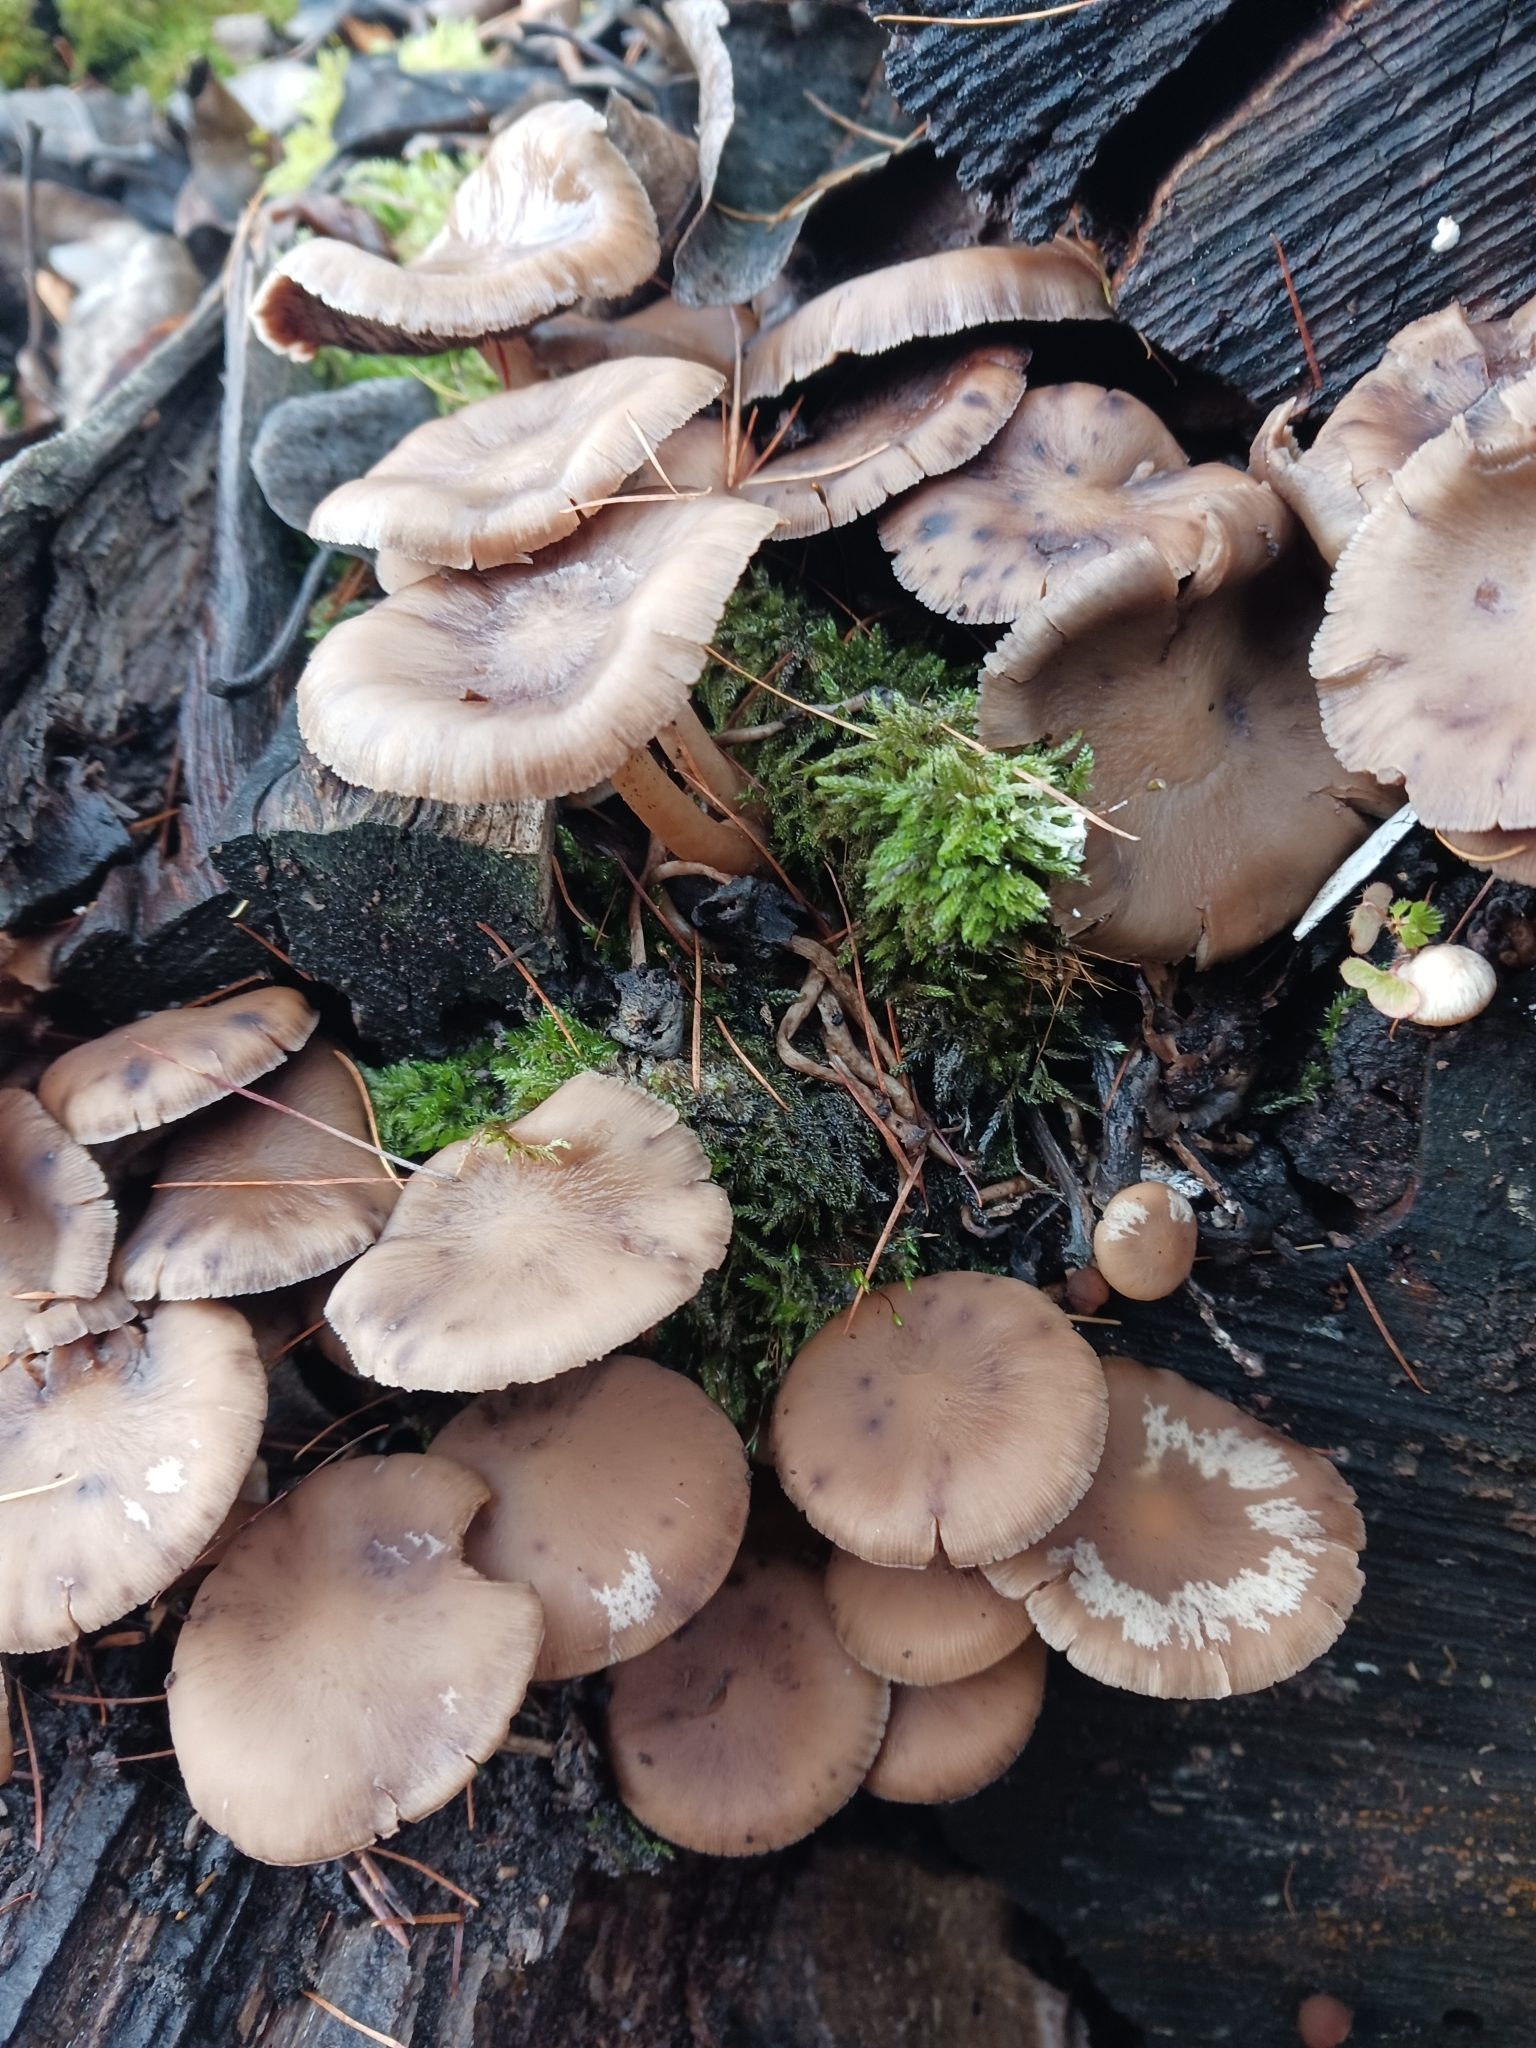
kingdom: Fungi
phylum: Basidiomycota
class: Agaricomycetes
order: Agaricales
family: Psathyrellaceae
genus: Psathyrella
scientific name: Psathyrella laevissima
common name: Slender stump brittlestem
